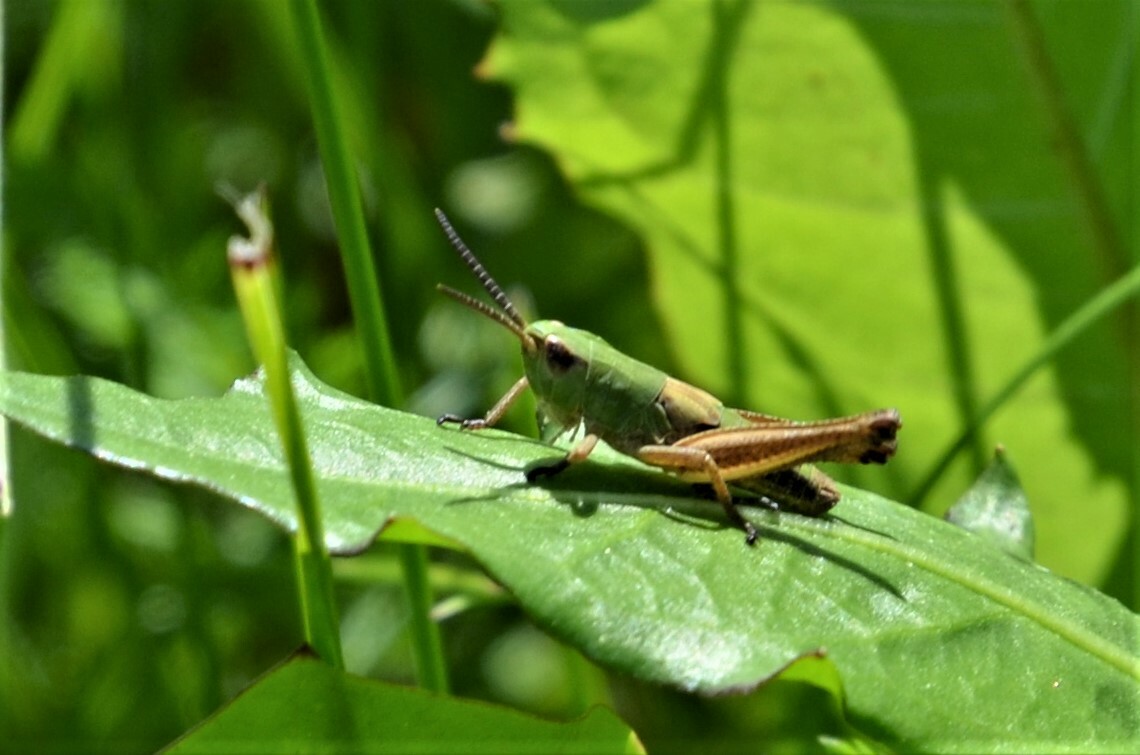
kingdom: Animalia
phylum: Arthropoda
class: Insecta
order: Orthoptera
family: Acrididae
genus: Pseudochorthippus
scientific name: Pseudochorthippus parallelus
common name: Meadow grasshopper
